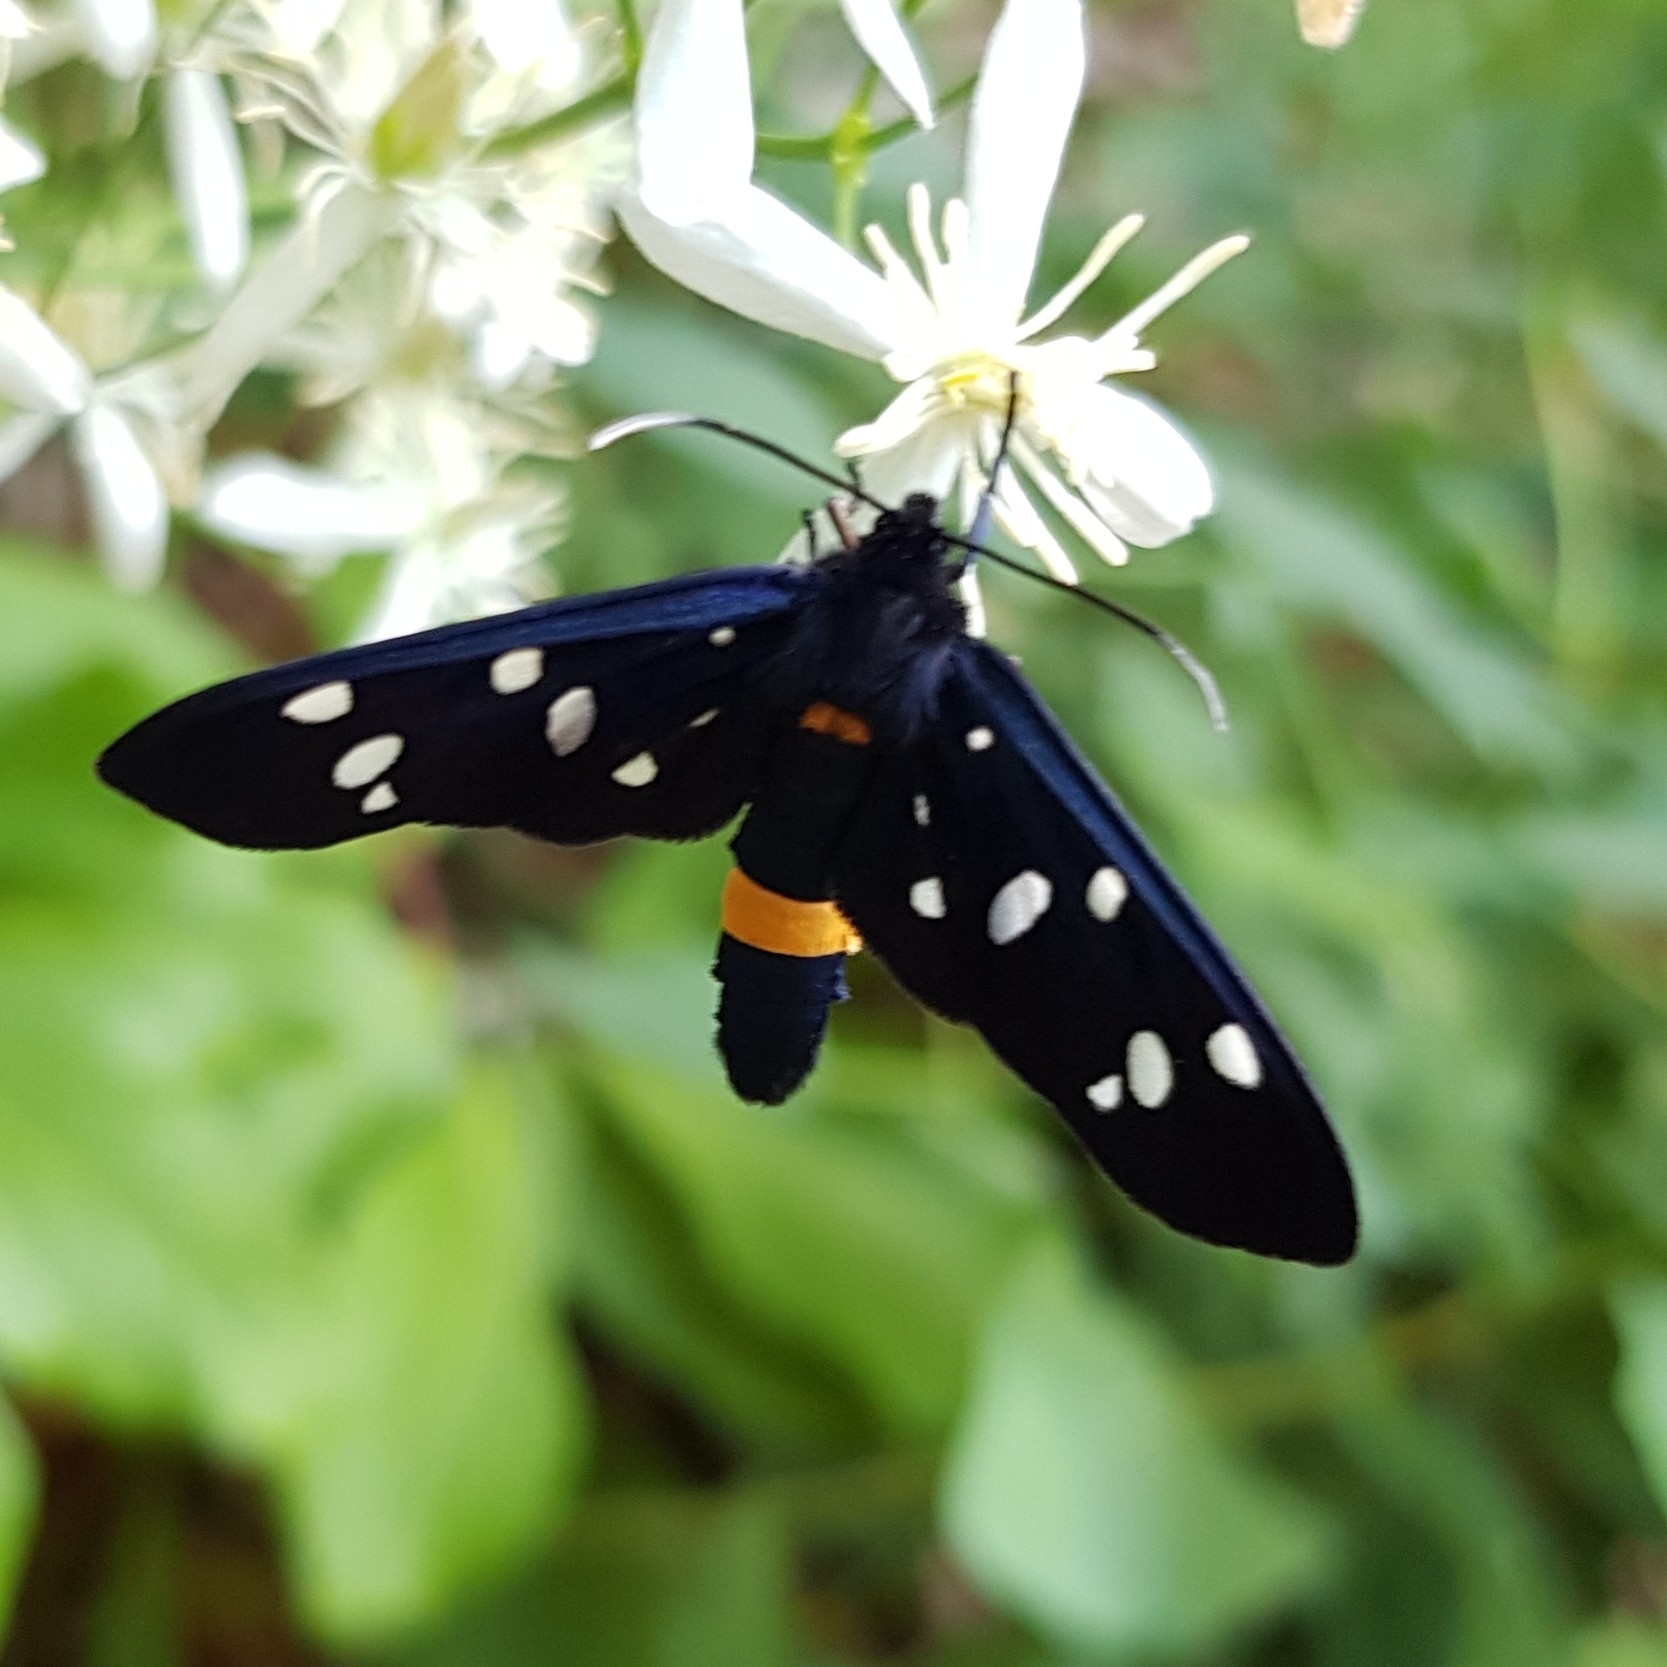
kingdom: Animalia
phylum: Arthropoda
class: Insecta
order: Lepidoptera
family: Erebidae
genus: Amata
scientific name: Amata phegea
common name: Nine-spotted
